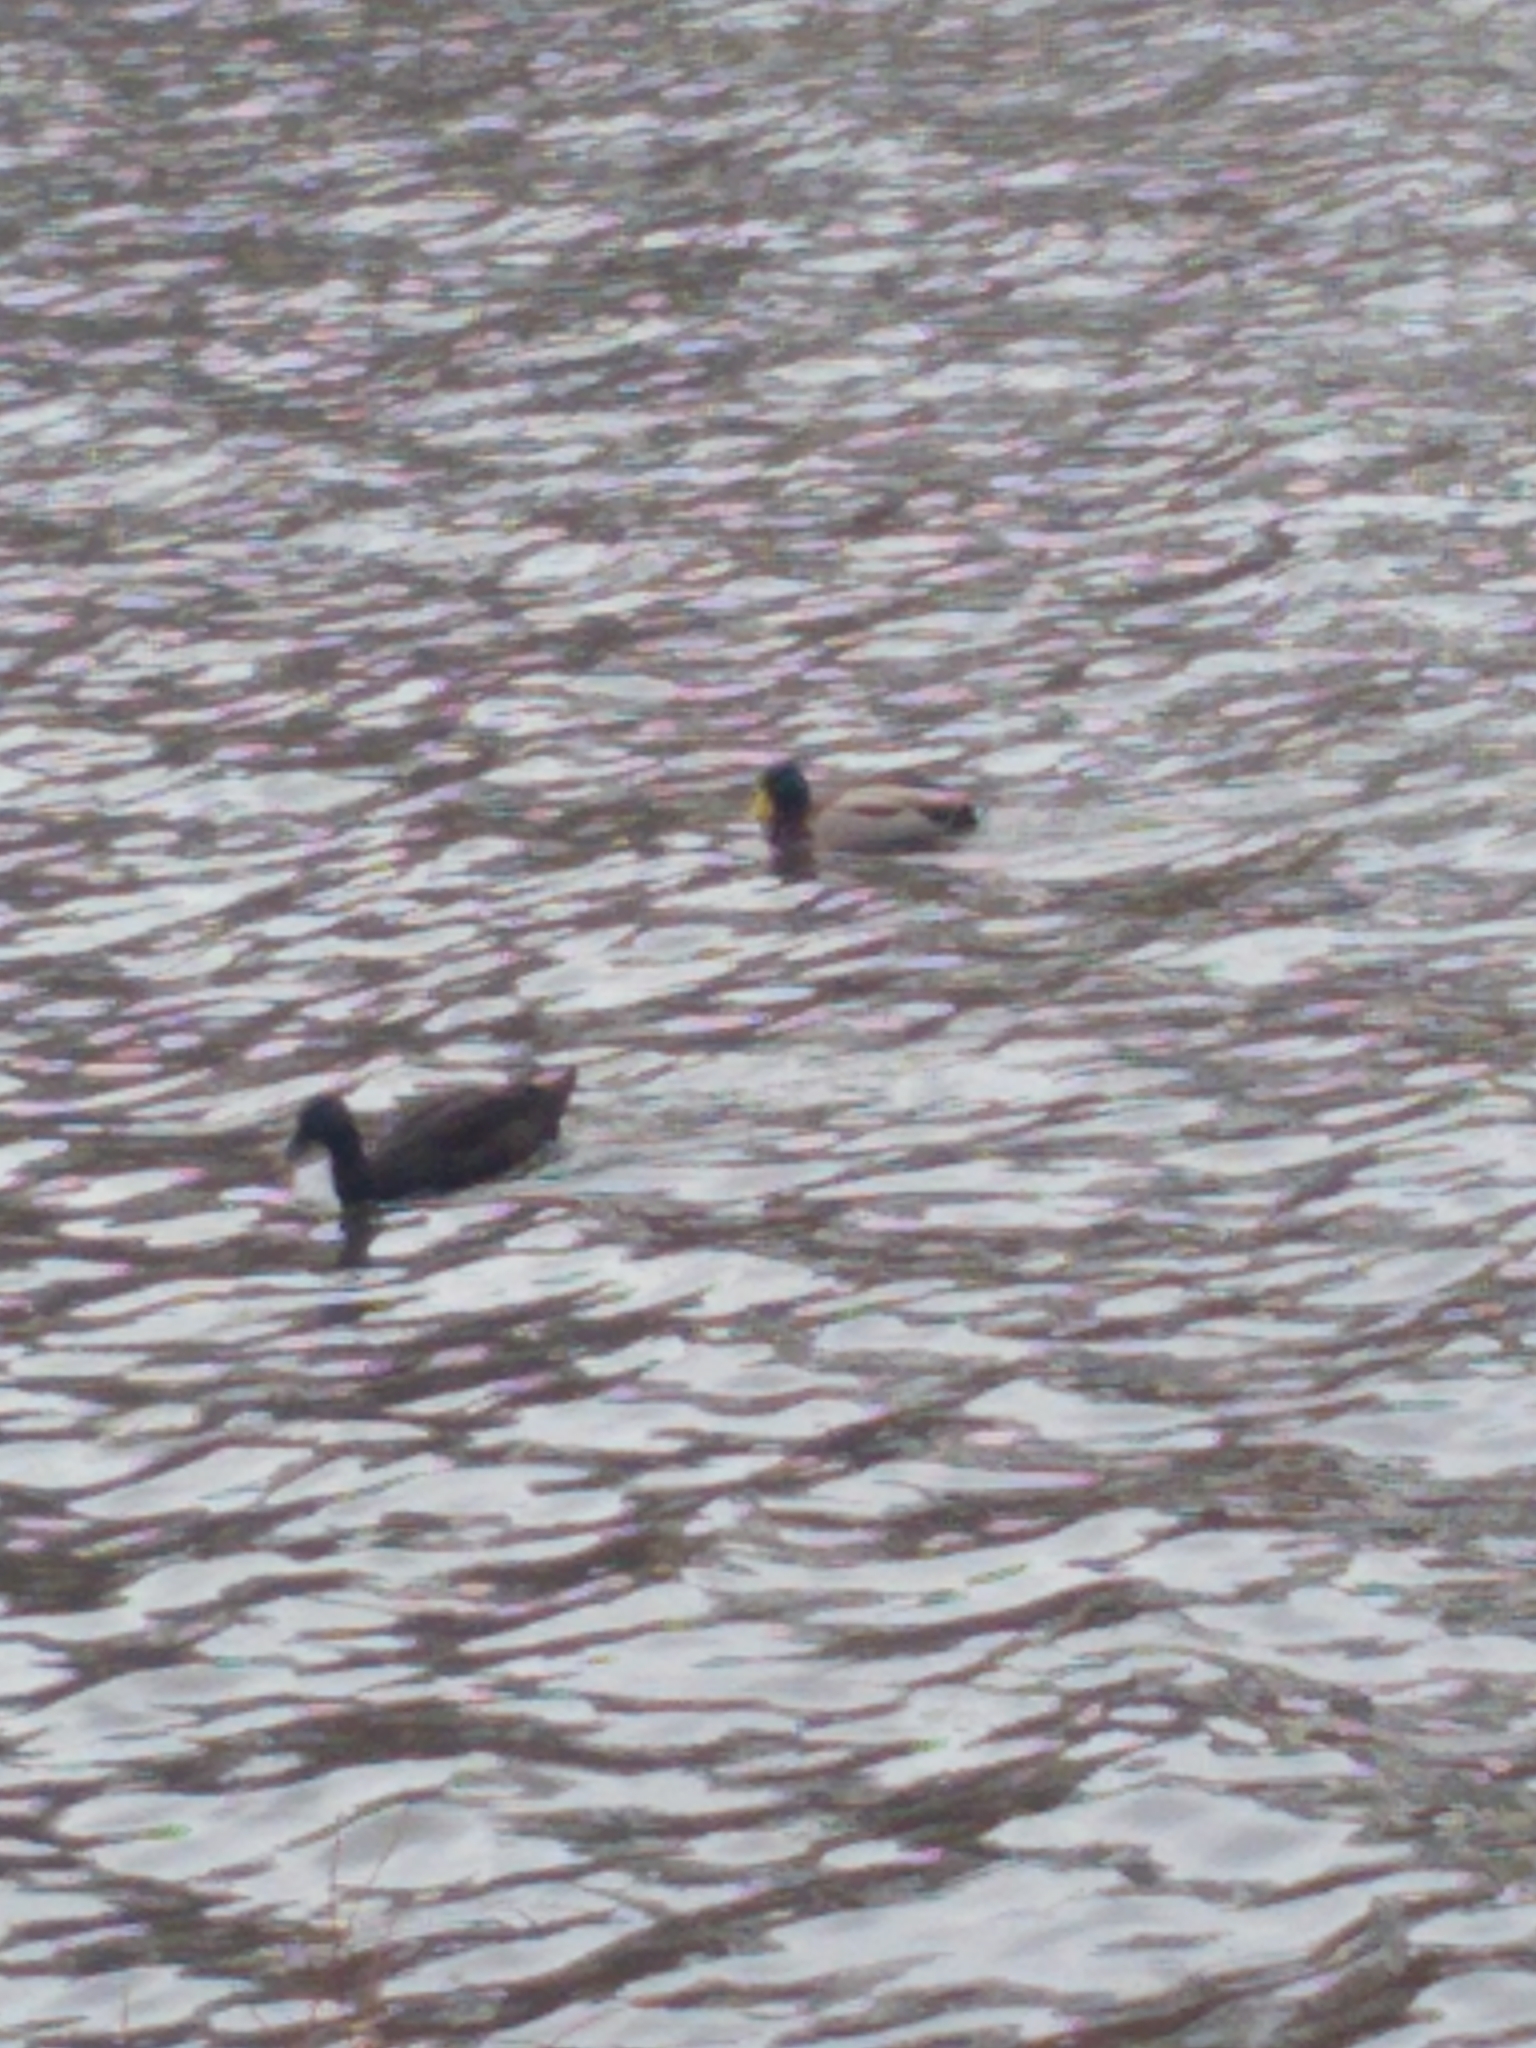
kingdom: Animalia
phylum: Chordata
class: Aves
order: Anseriformes
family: Anatidae
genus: Anas
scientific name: Anas platyrhynchos
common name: Mallard
